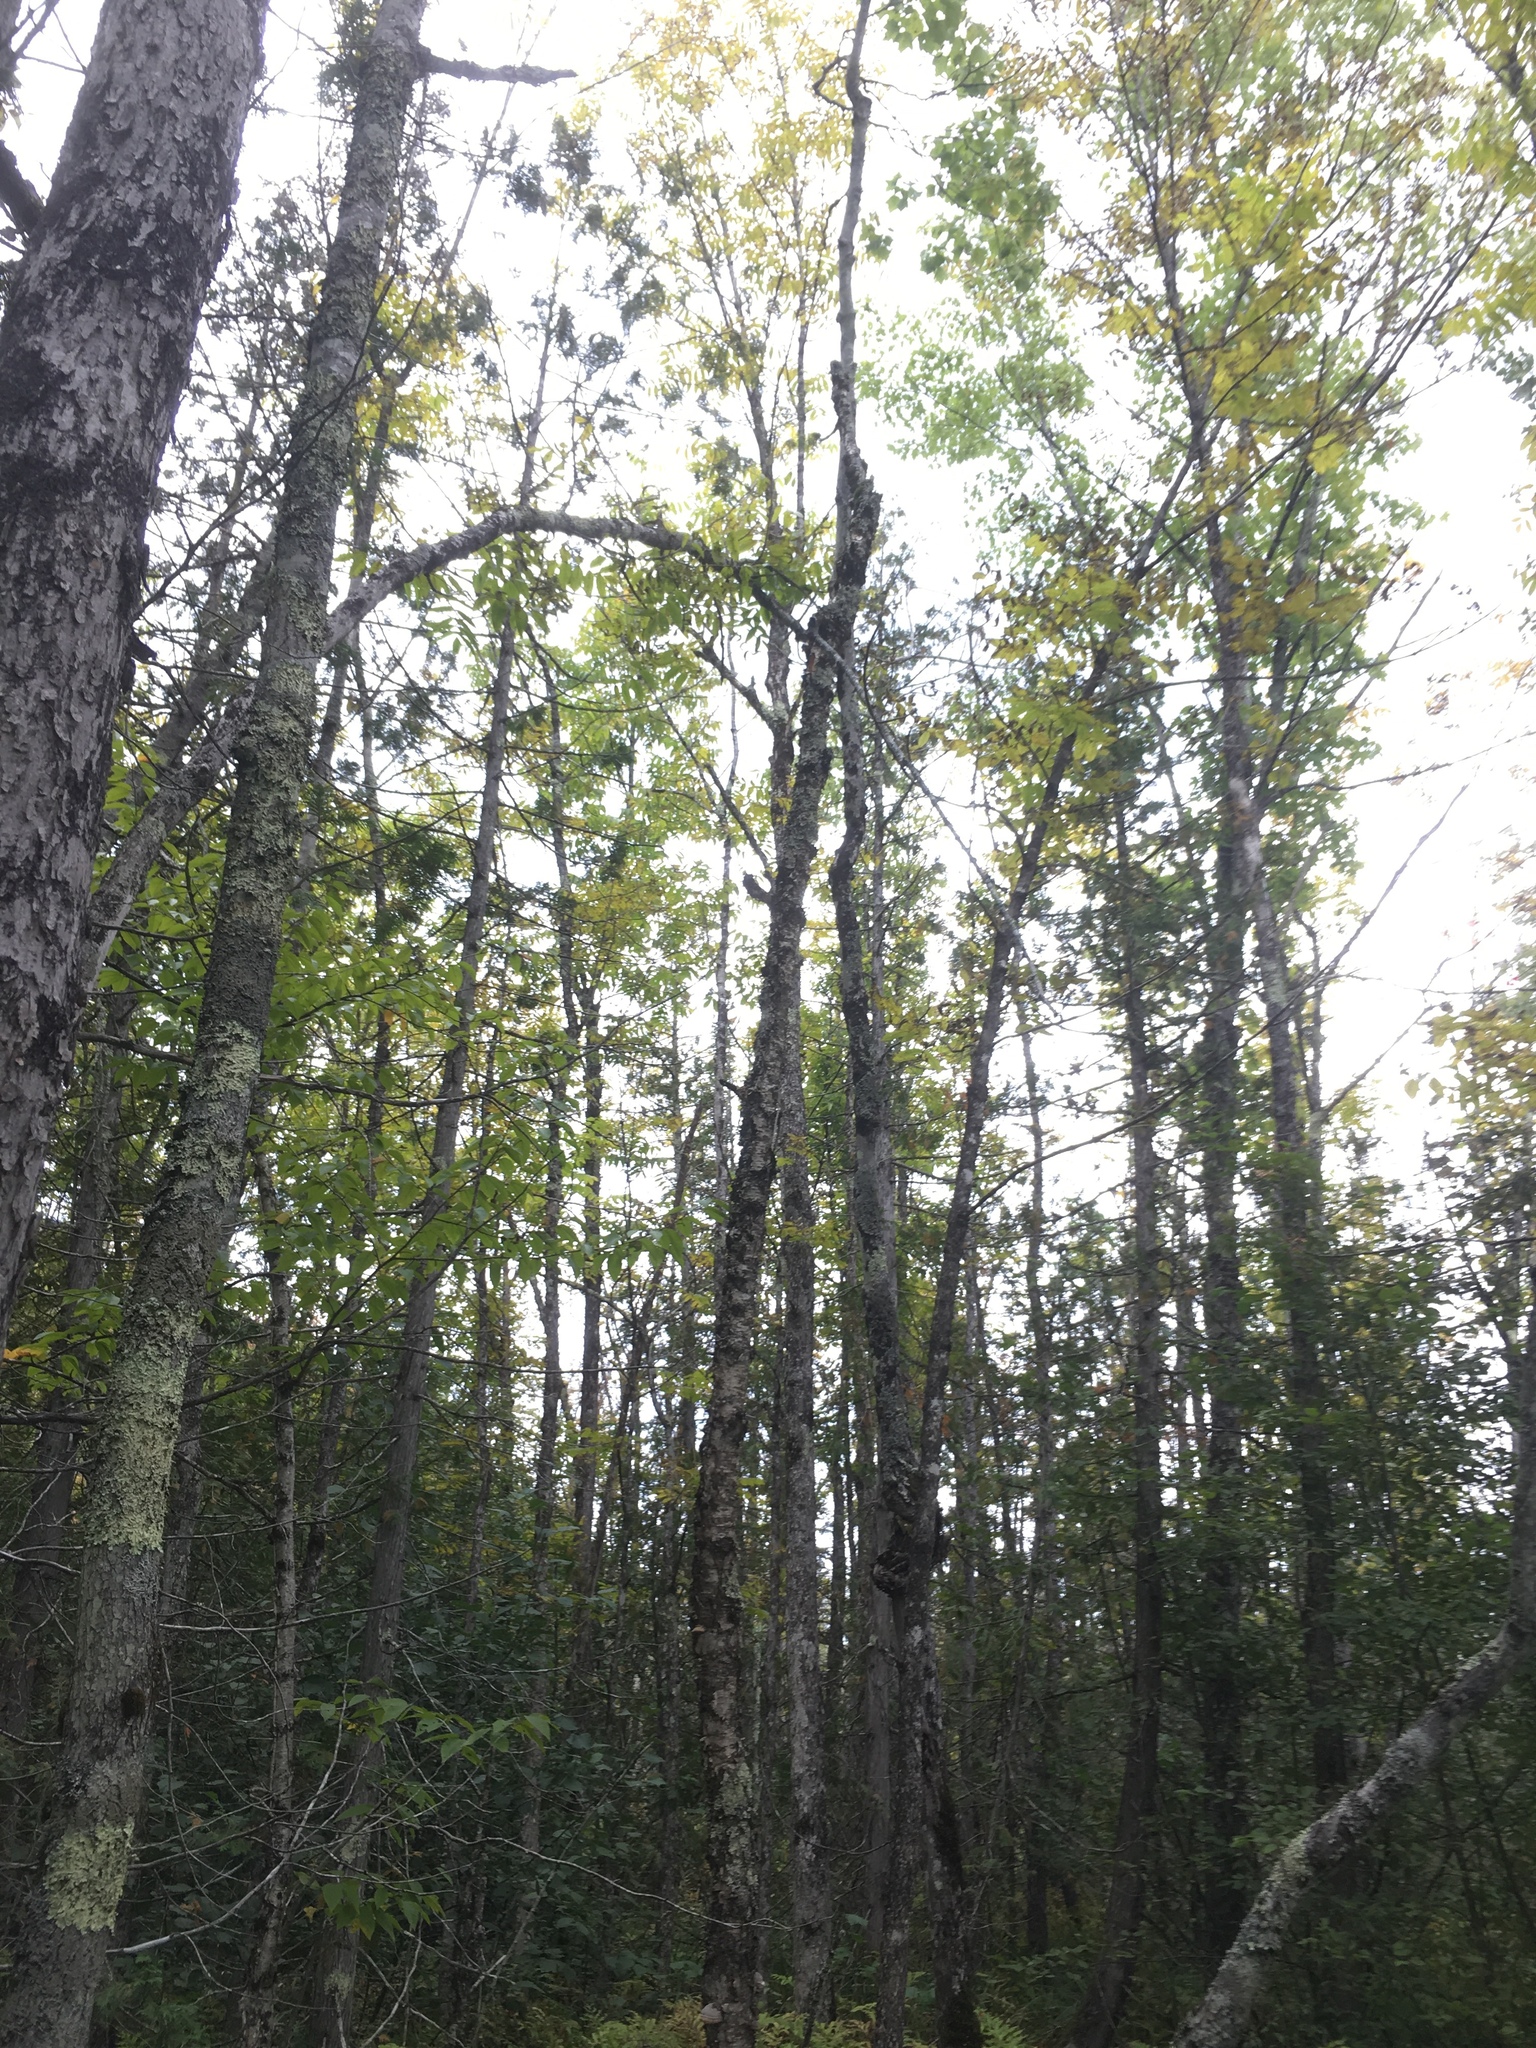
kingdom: Plantae
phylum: Tracheophyta
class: Magnoliopsida
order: Lamiales
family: Oleaceae
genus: Fraxinus
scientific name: Fraxinus nigra
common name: Black ash
